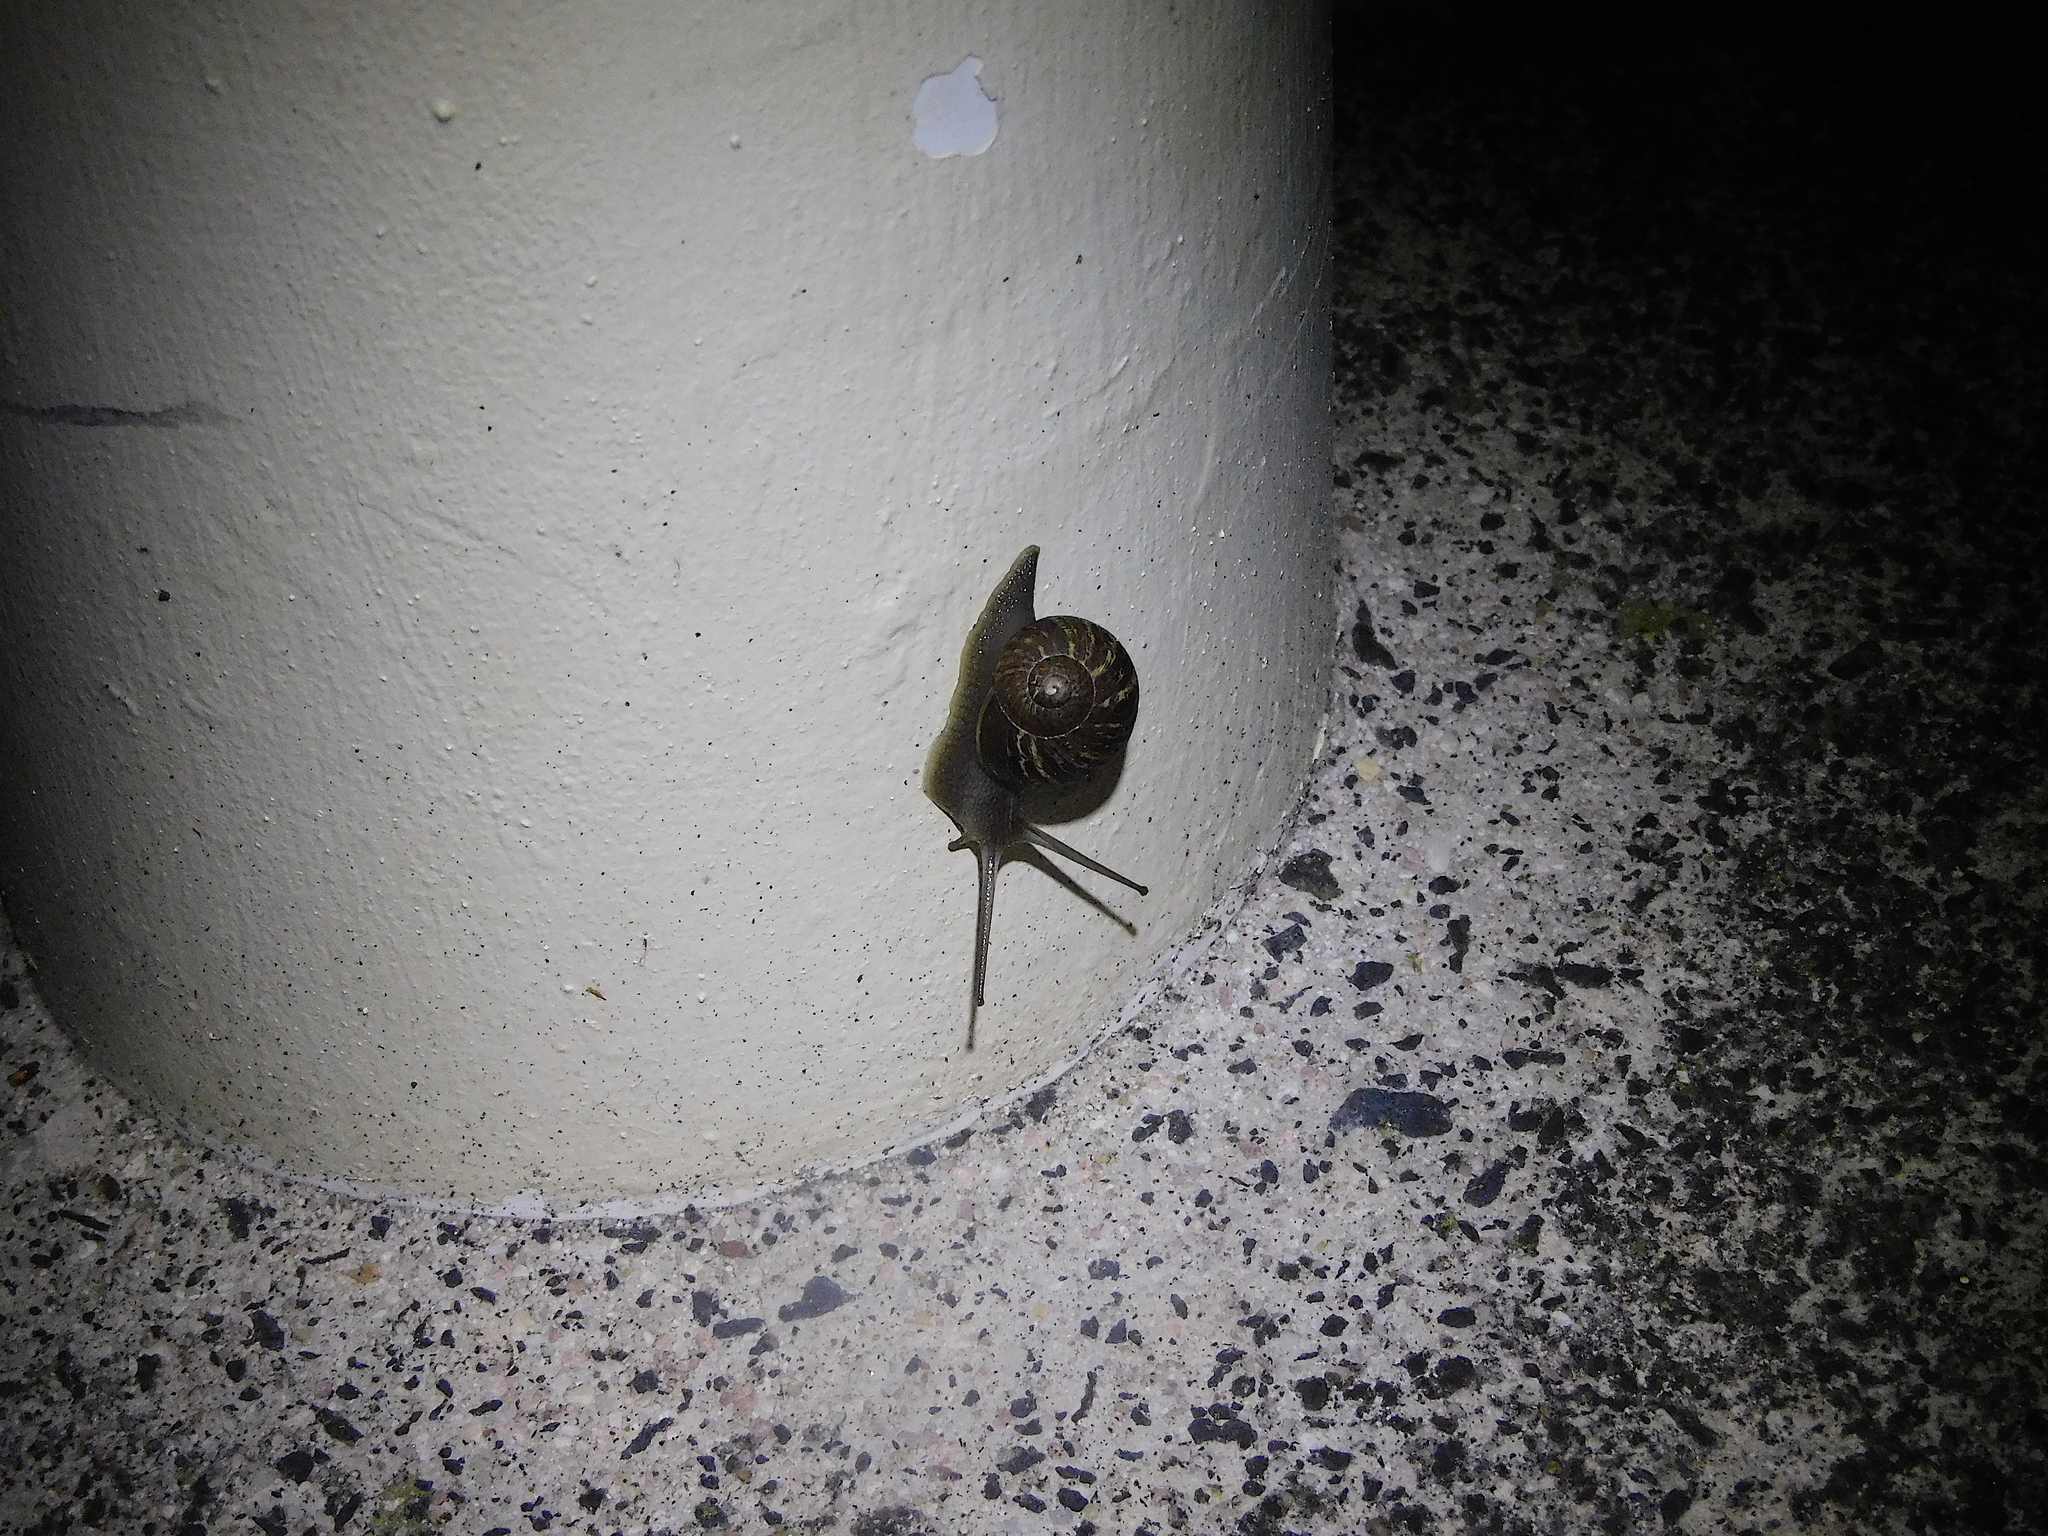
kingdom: Animalia
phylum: Mollusca
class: Gastropoda
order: Stylommatophora
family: Helicidae
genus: Cornu
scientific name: Cornu aspersum
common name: Brown garden snail
